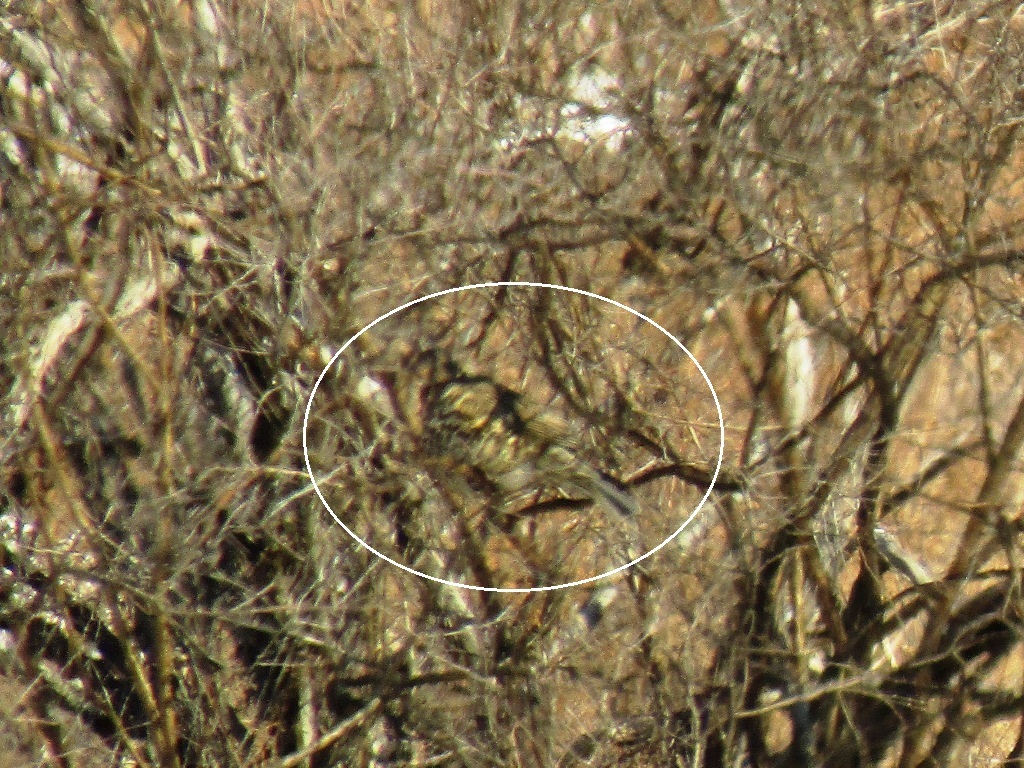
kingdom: Animalia
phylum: Chordata
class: Aves
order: Passeriformes
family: Turdidae
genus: Turdus
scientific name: Turdus viscivorus
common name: Mistle thrush
